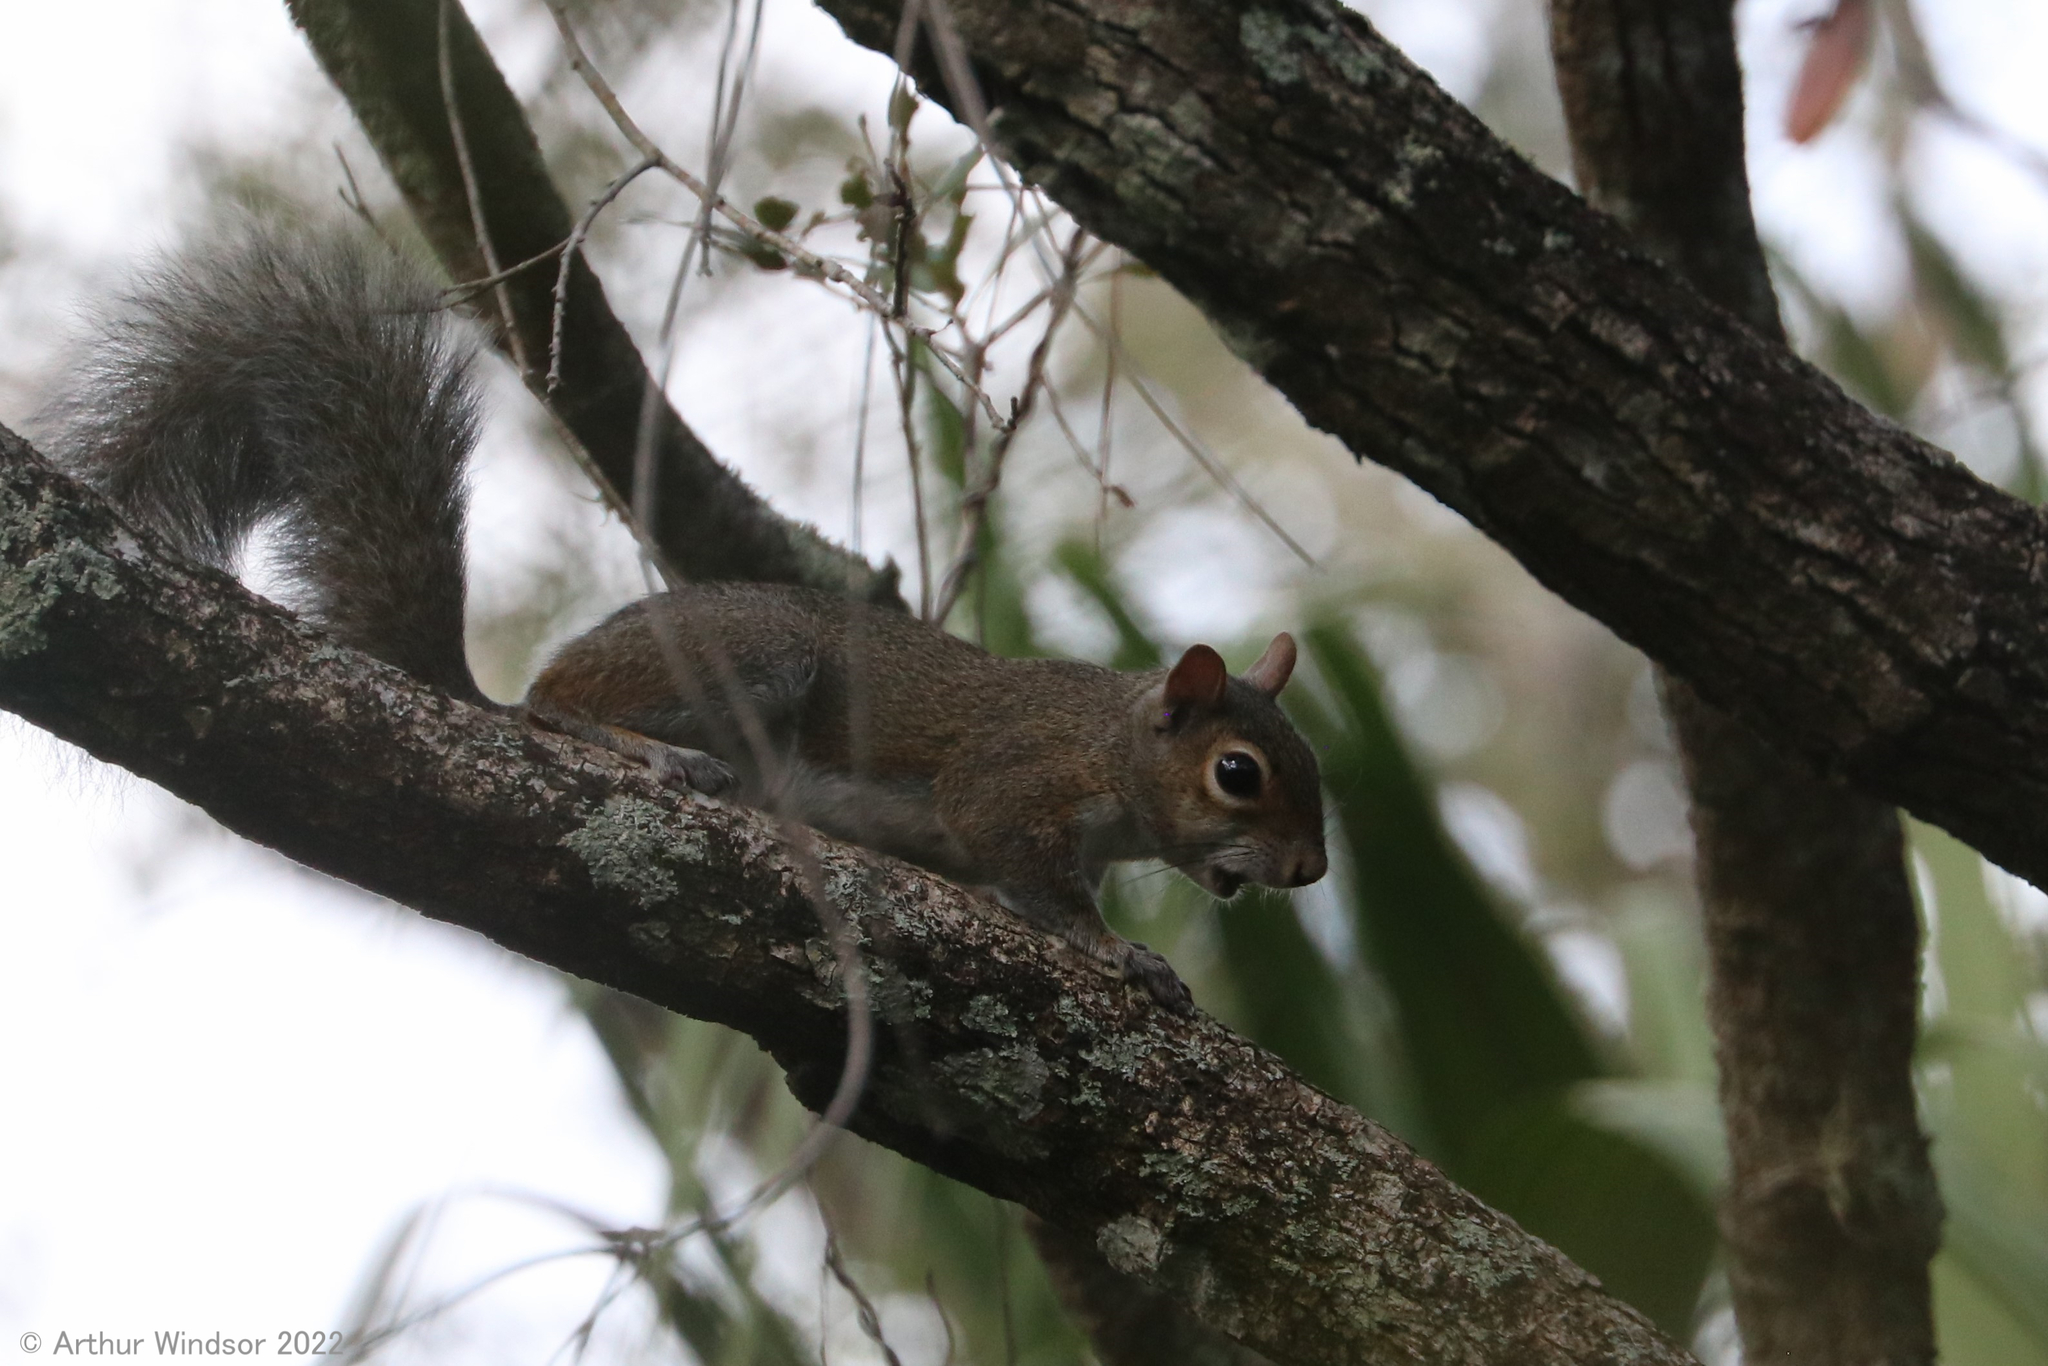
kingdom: Animalia
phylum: Chordata
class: Mammalia
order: Rodentia
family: Sciuridae
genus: Sciurus
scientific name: Sciurus carolinensis
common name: Eastern gray squirrel
